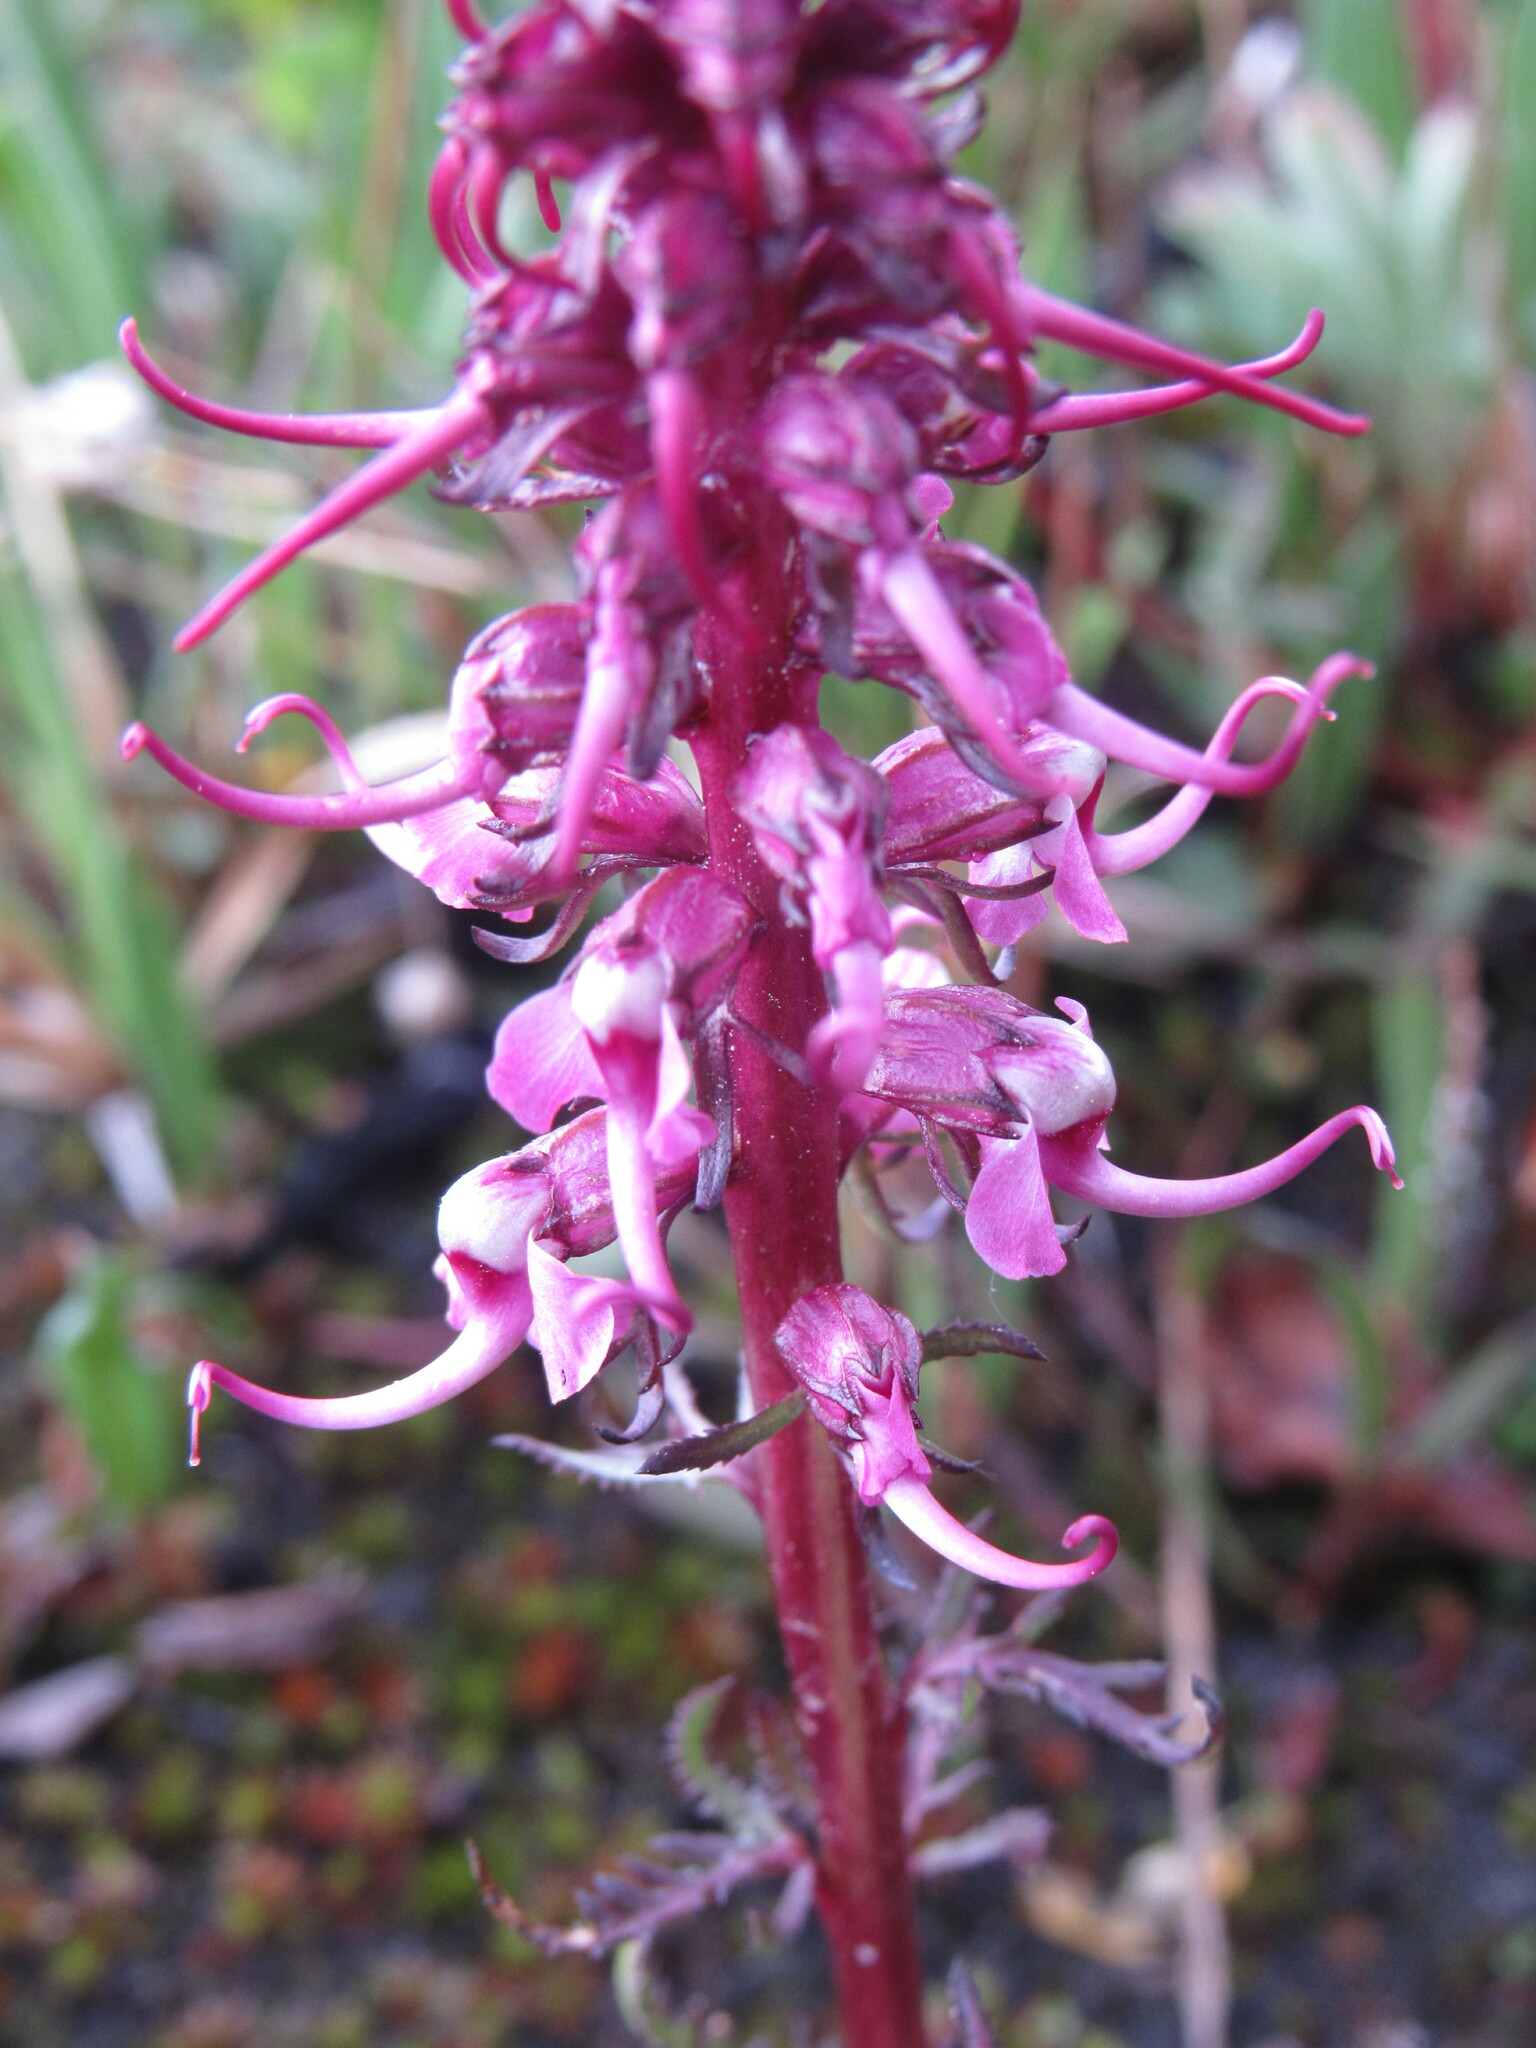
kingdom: Plantae
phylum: Tracheophyta
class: Magnoliopsida
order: Lamiales
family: Orobanchaceae
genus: Pedicularis
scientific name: Pedicularis groenlandica
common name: Elephant's-head
